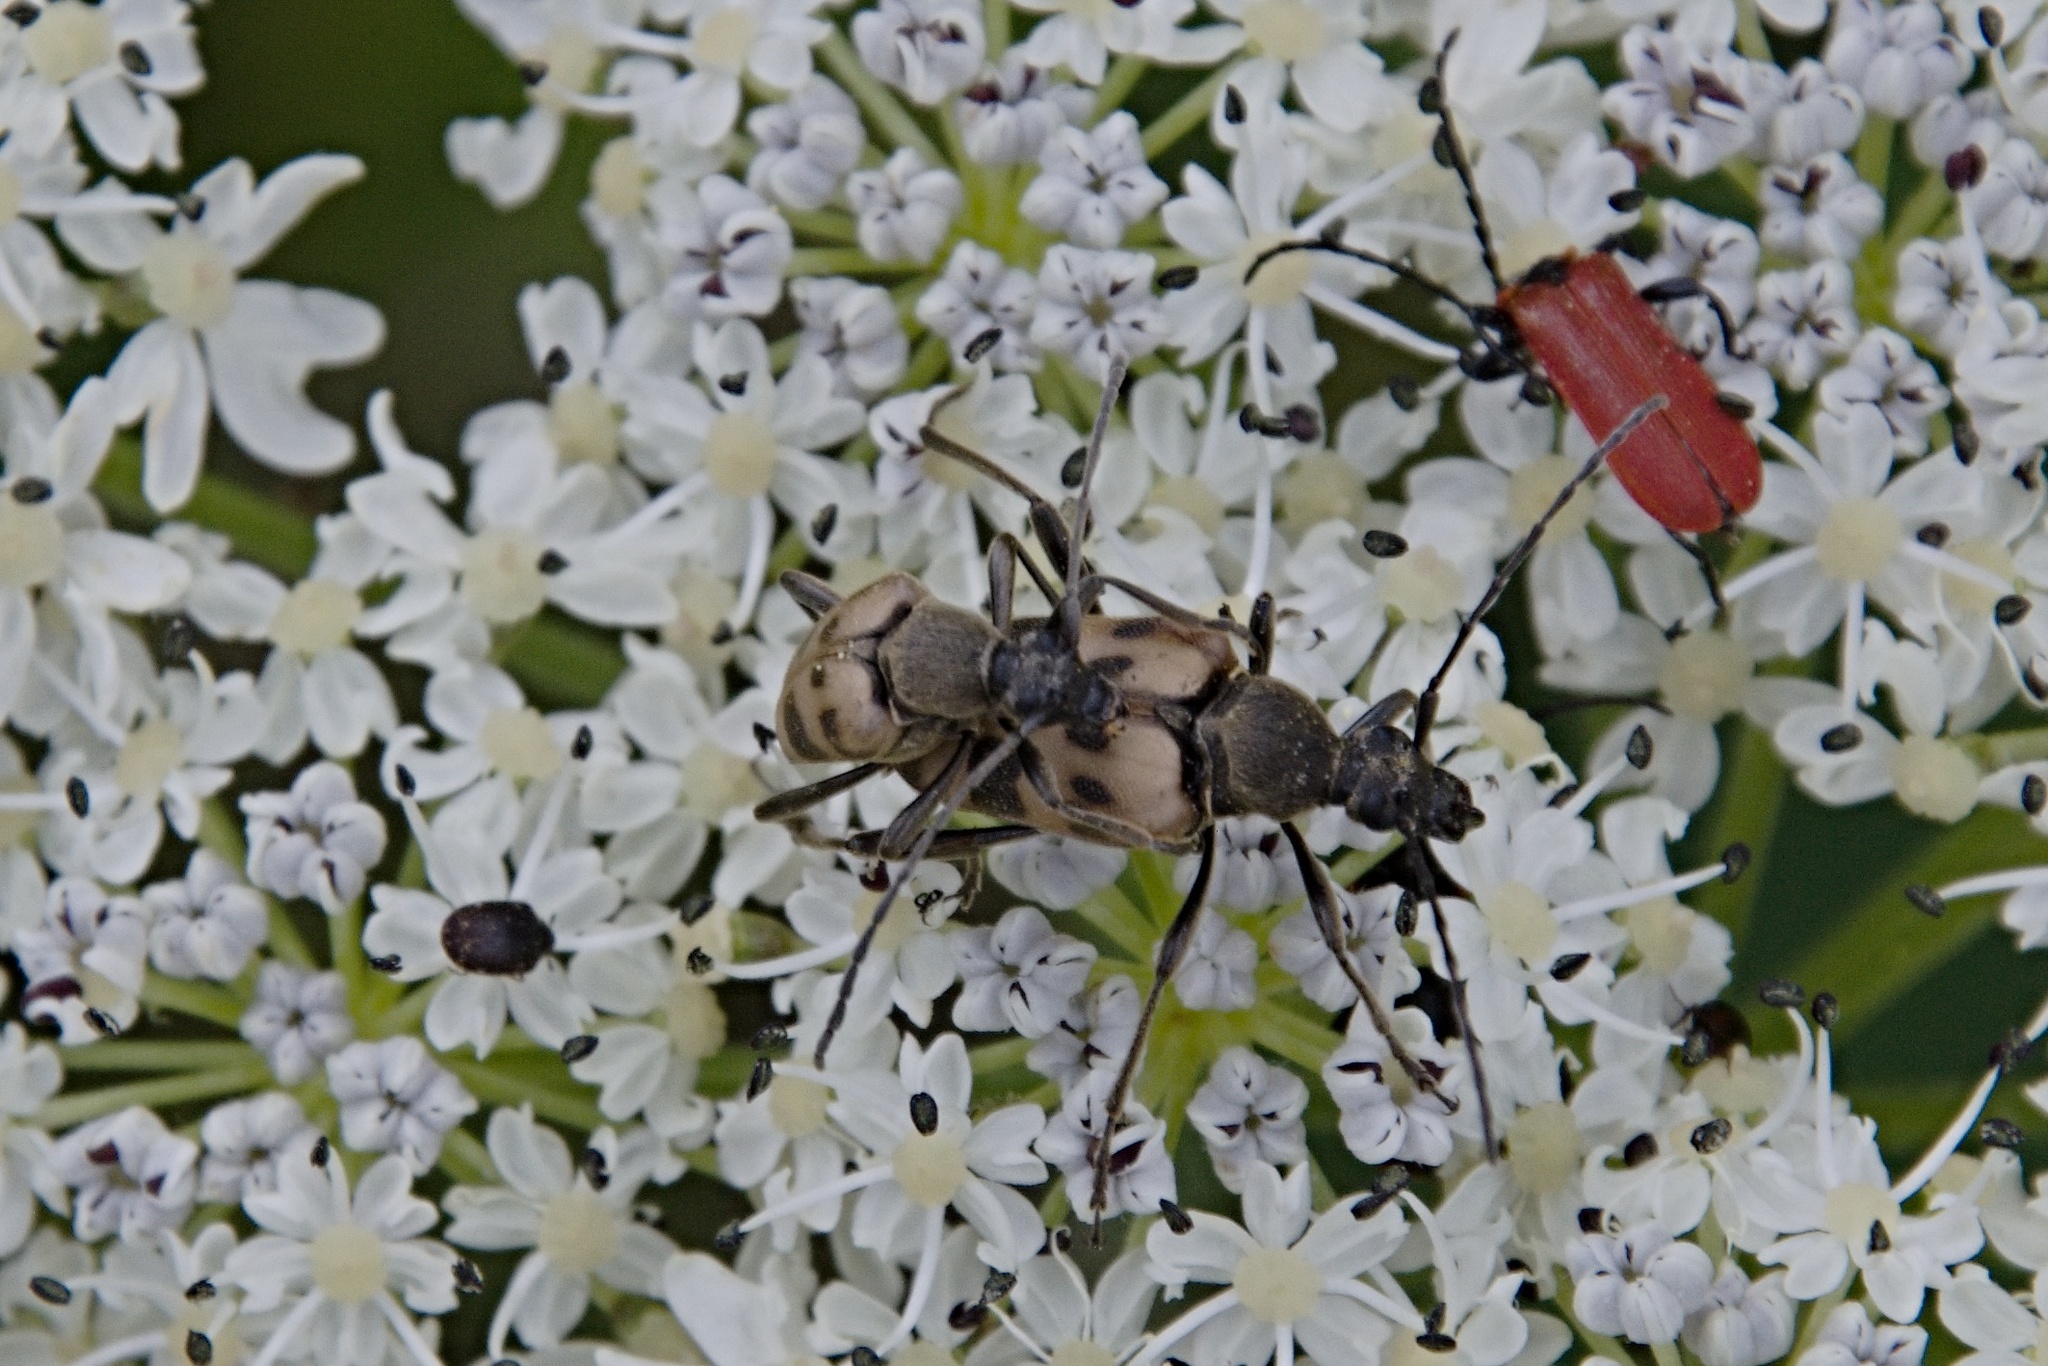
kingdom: Animalia
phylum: Arthropoda
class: Insecta
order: Coleoptera
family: Cerambycidae
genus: Pachytodes
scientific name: Pachytodes cerambyciformis
